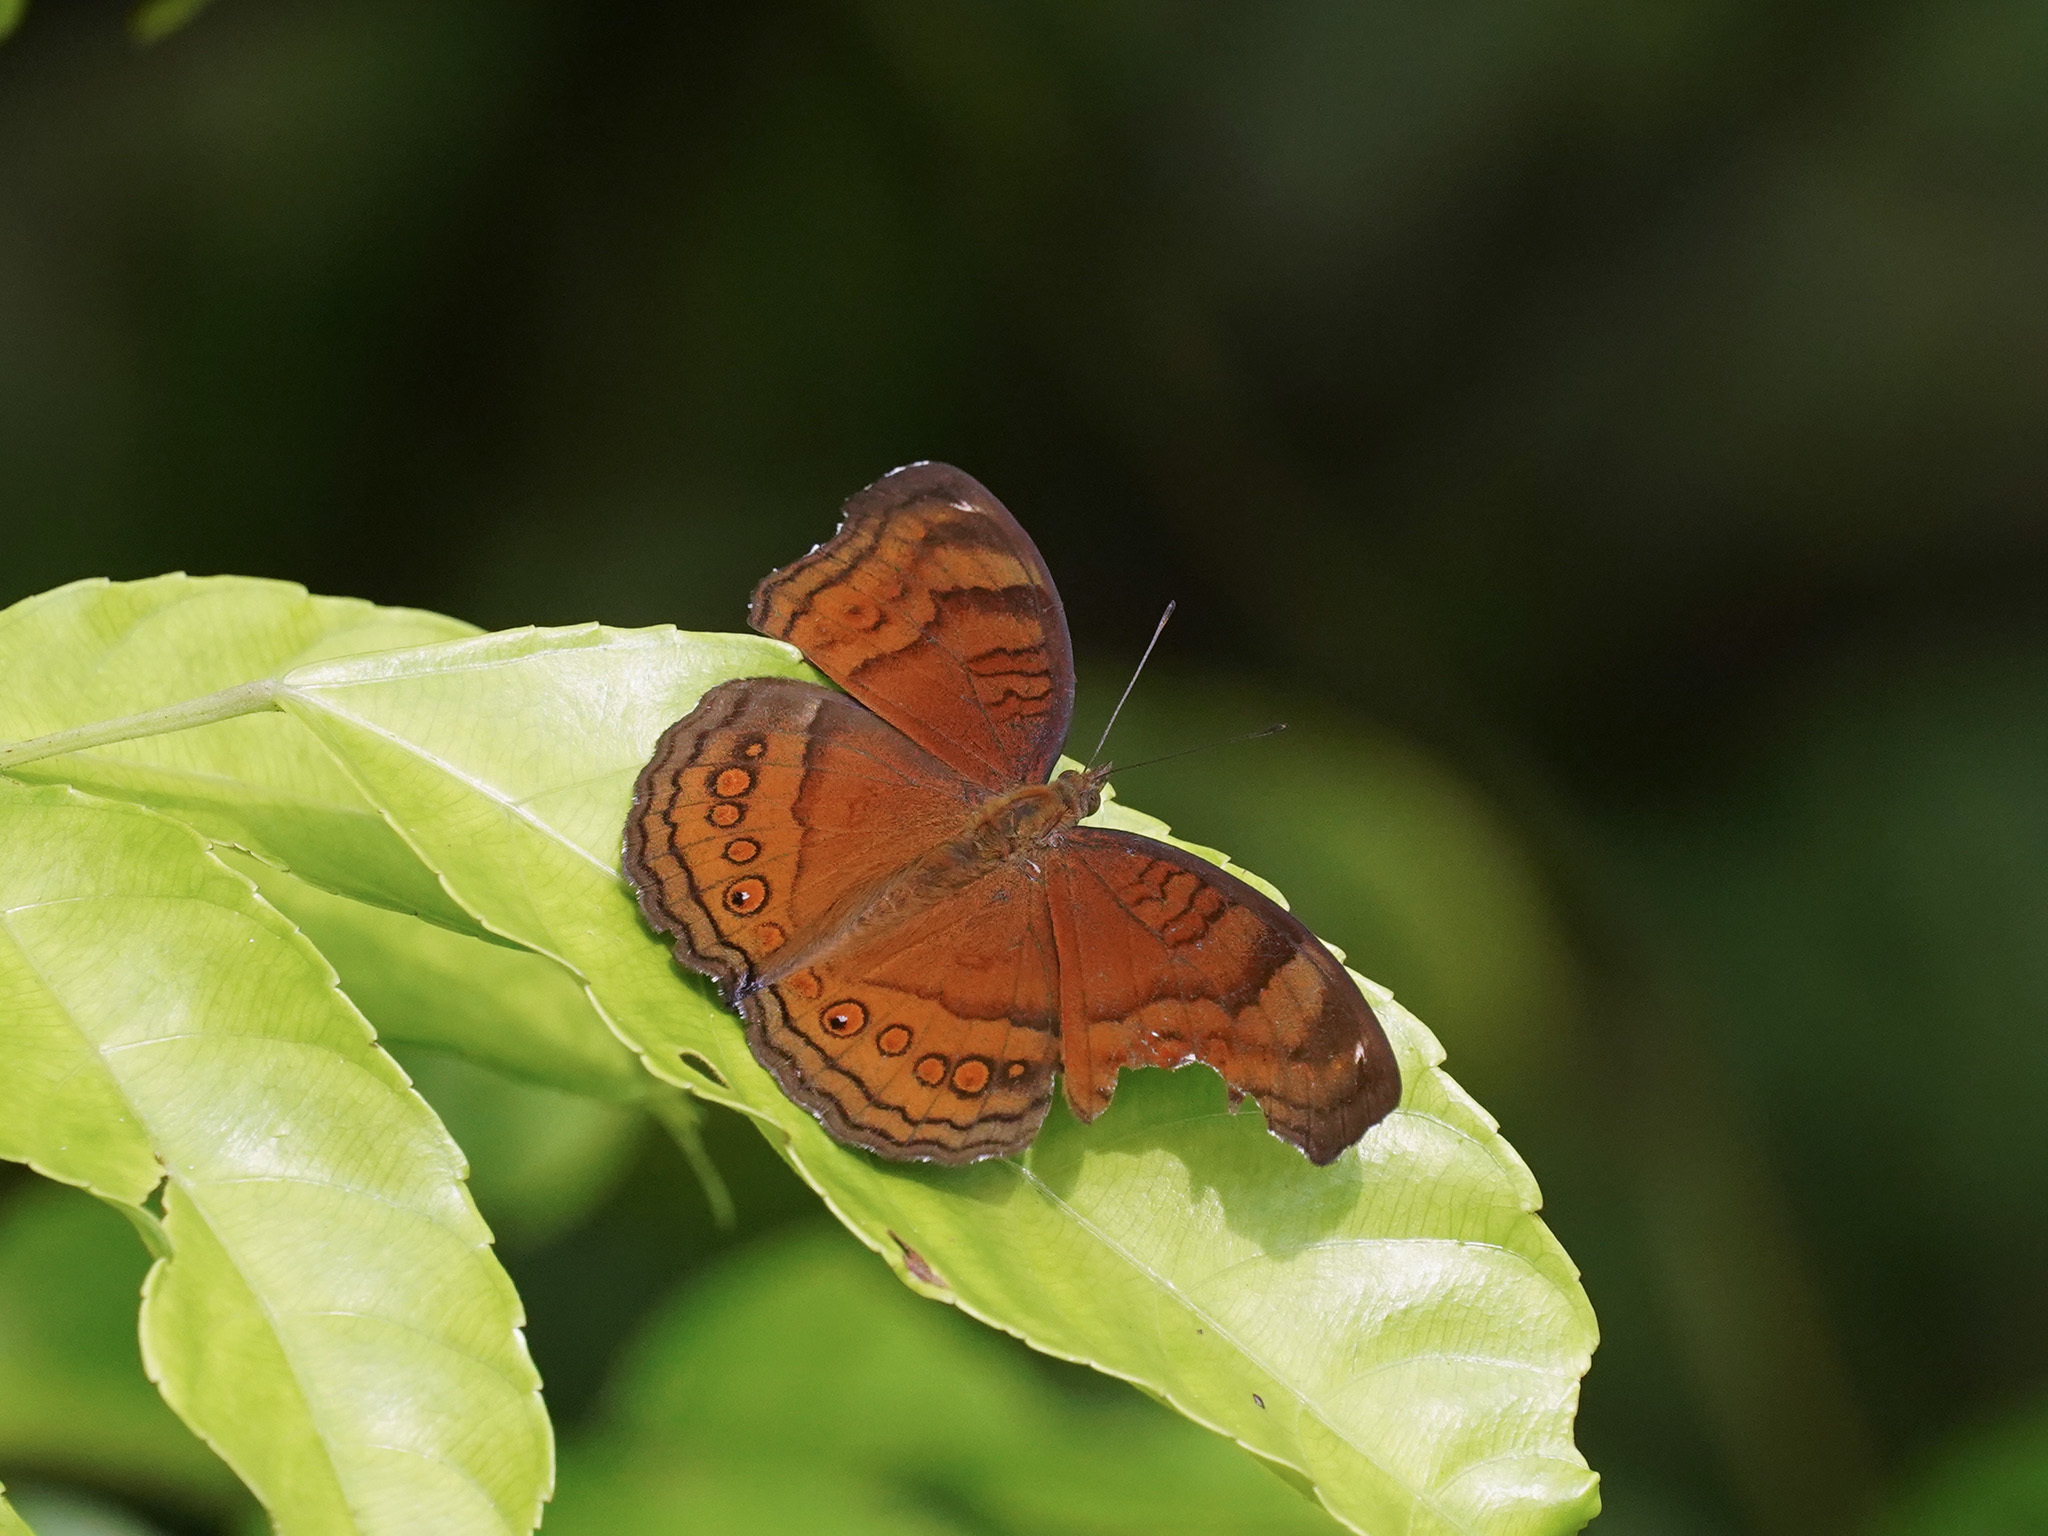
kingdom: Animalia
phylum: Arthropoda
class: Insecta
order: Lepidoptera
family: Nymphalidae
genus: Junonia
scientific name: Junonia hedonia
